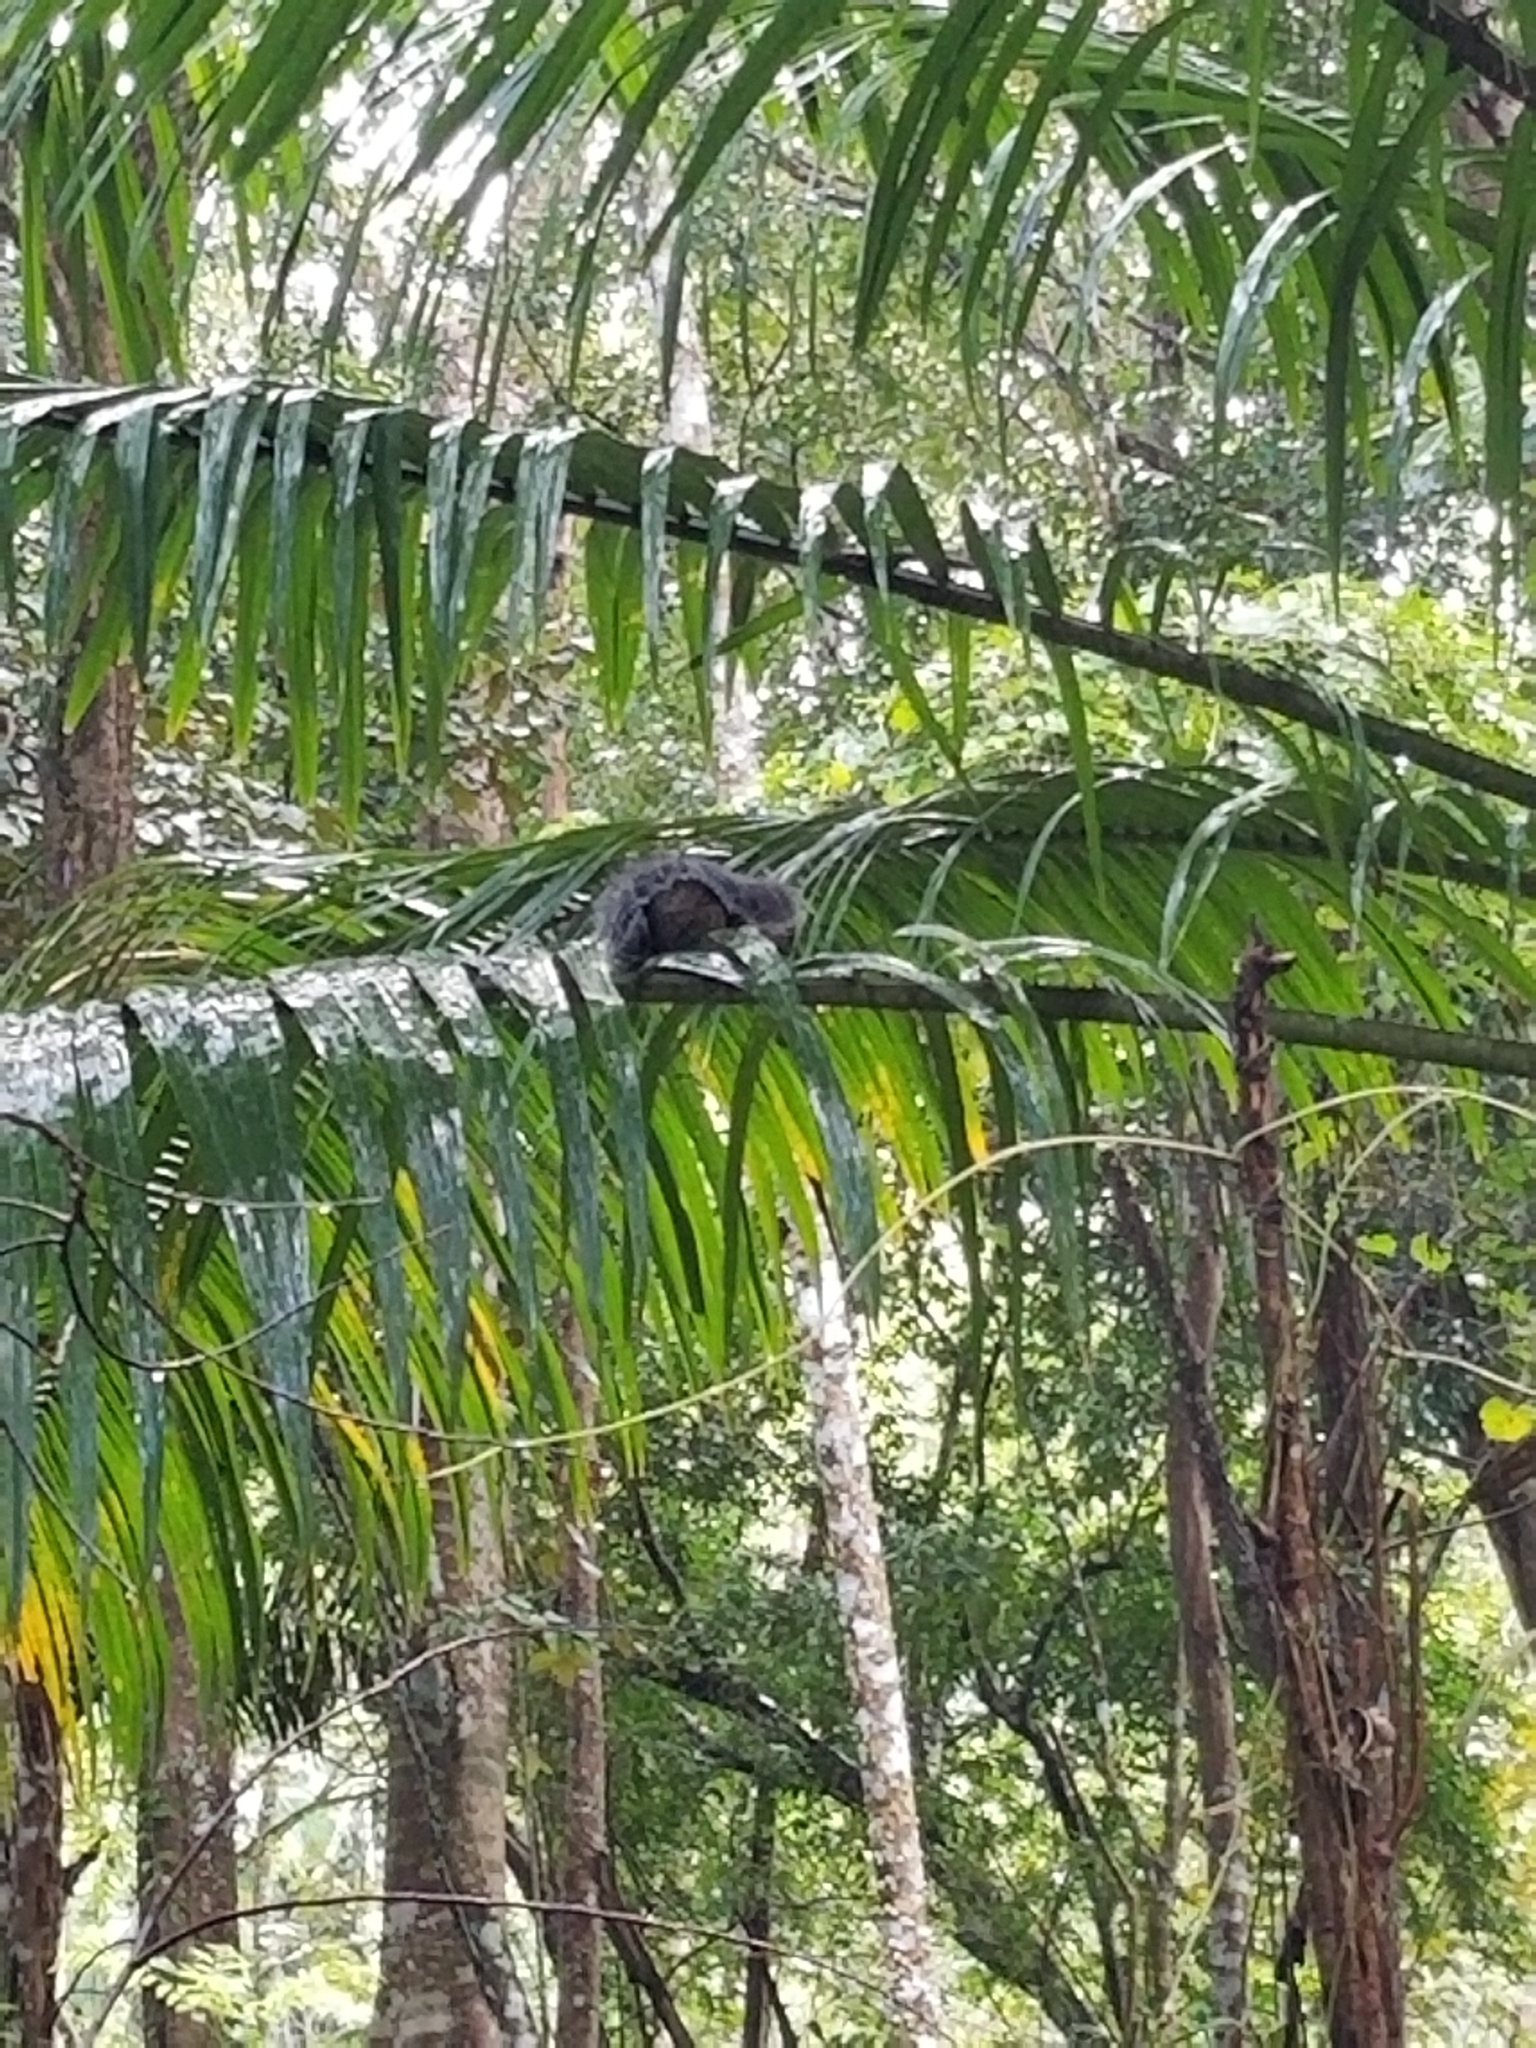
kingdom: Animalia
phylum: Chordata
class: Mammalia
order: Rodentia
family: Sciuridae
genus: Sciurus
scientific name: Sciurus variegatoides
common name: Variegated squirrel
